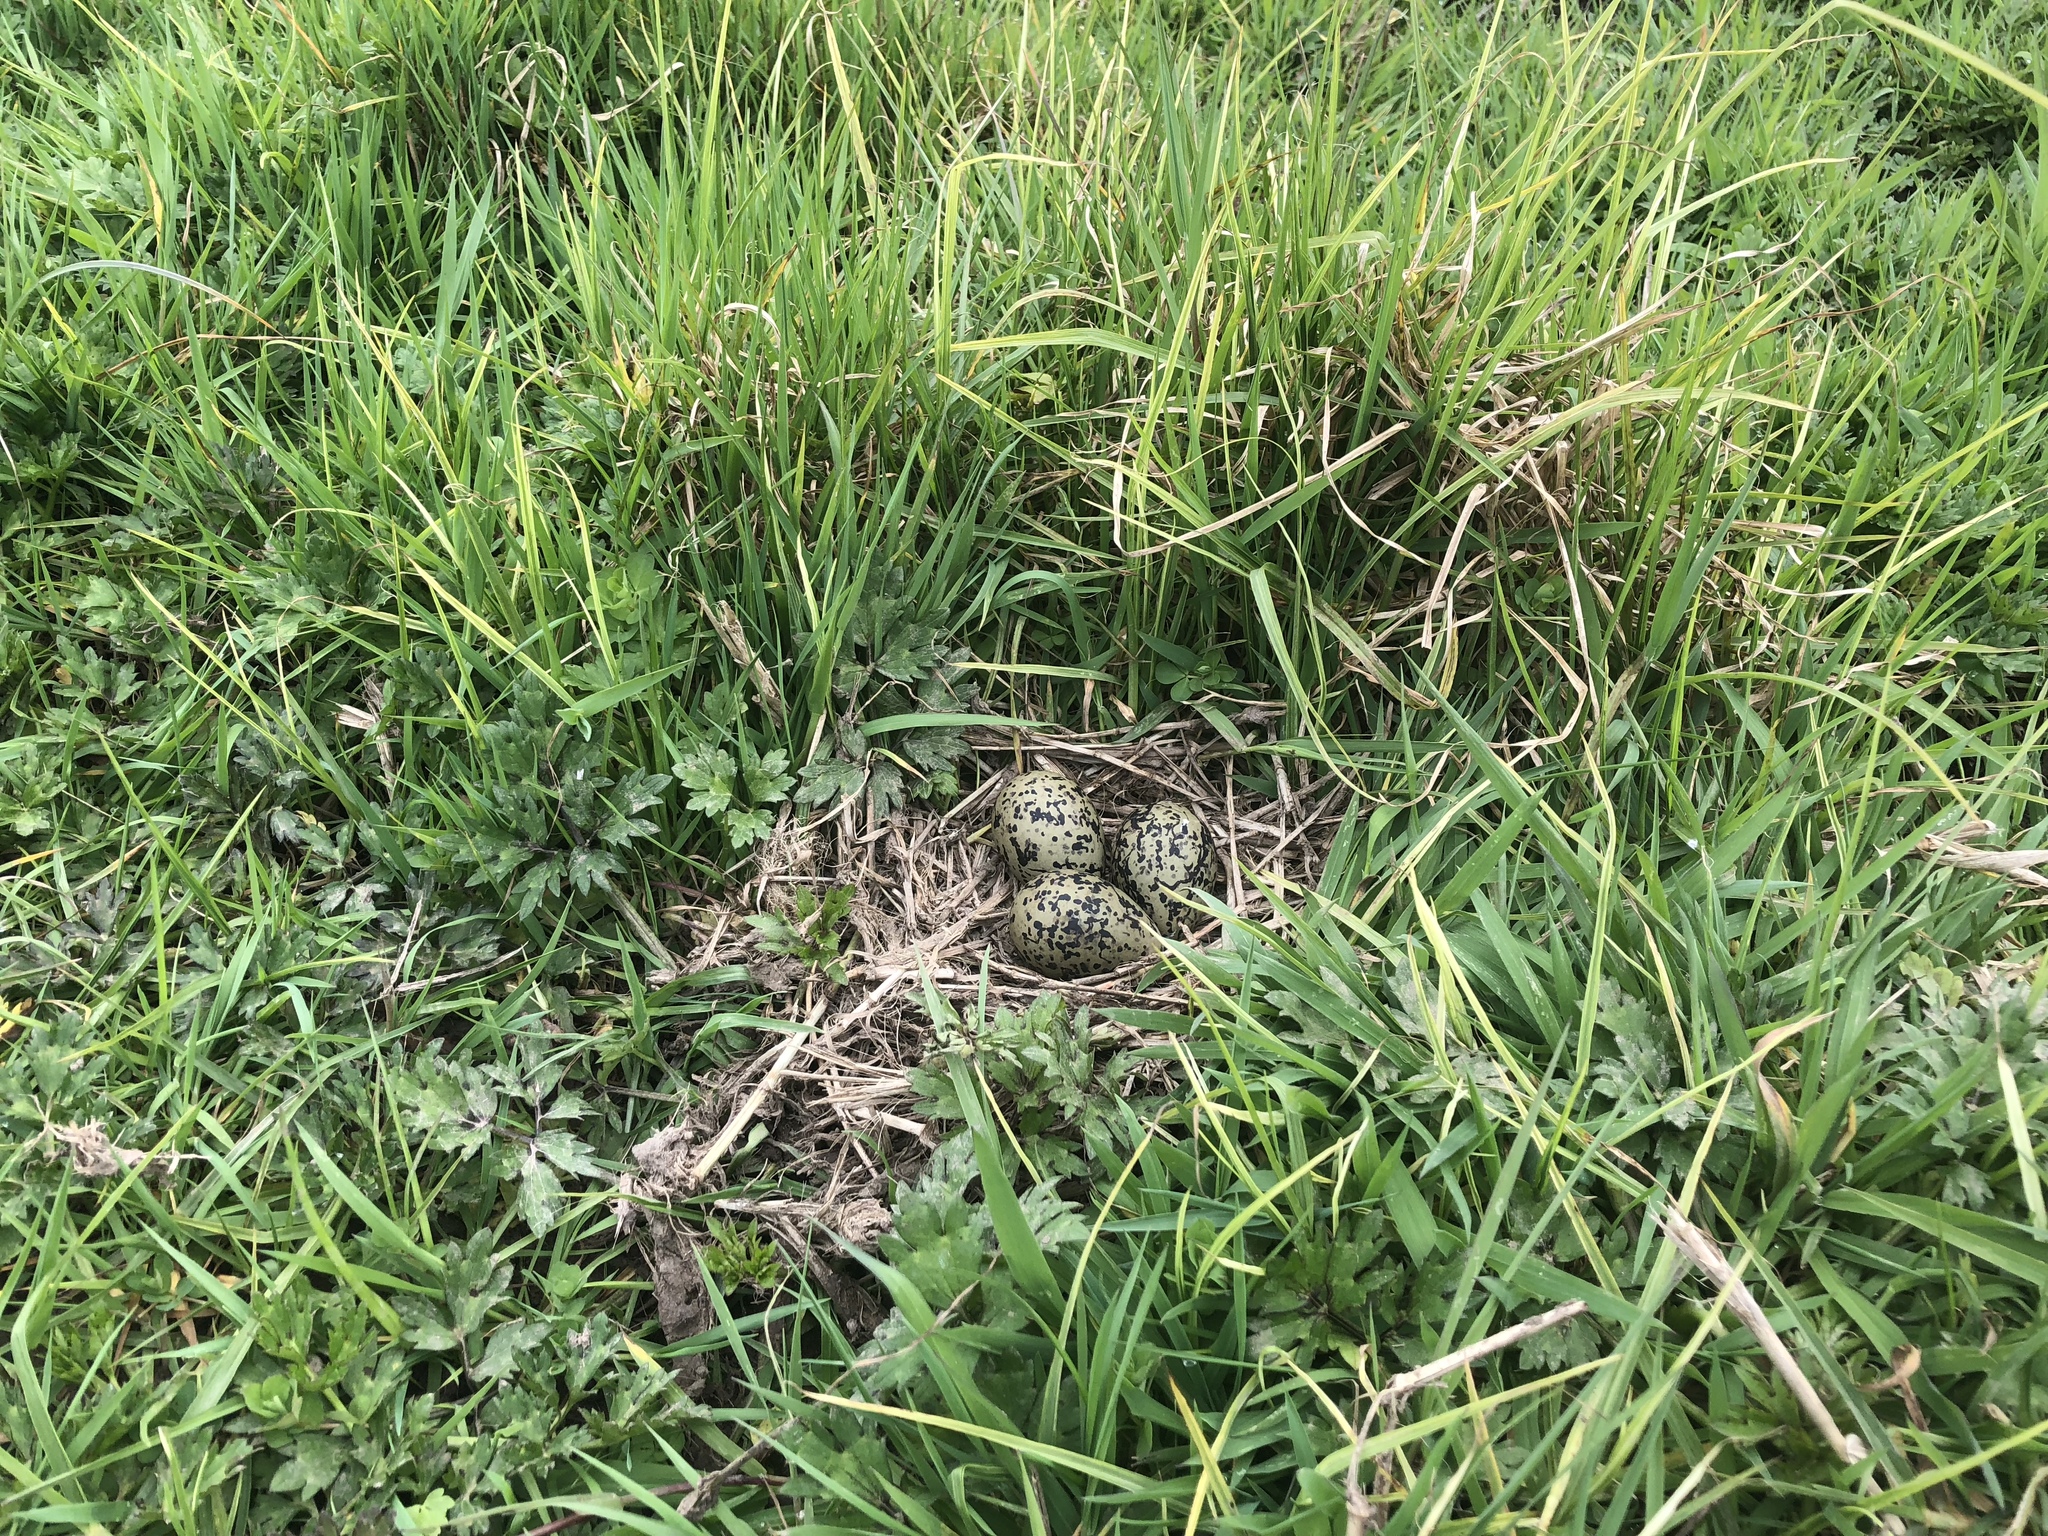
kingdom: Animalia
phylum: Chordata
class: Aves
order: Charadriiformes
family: Recurvirostridae
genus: Himantopus
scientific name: Himantopus leucocephalus
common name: White-headed stilt
